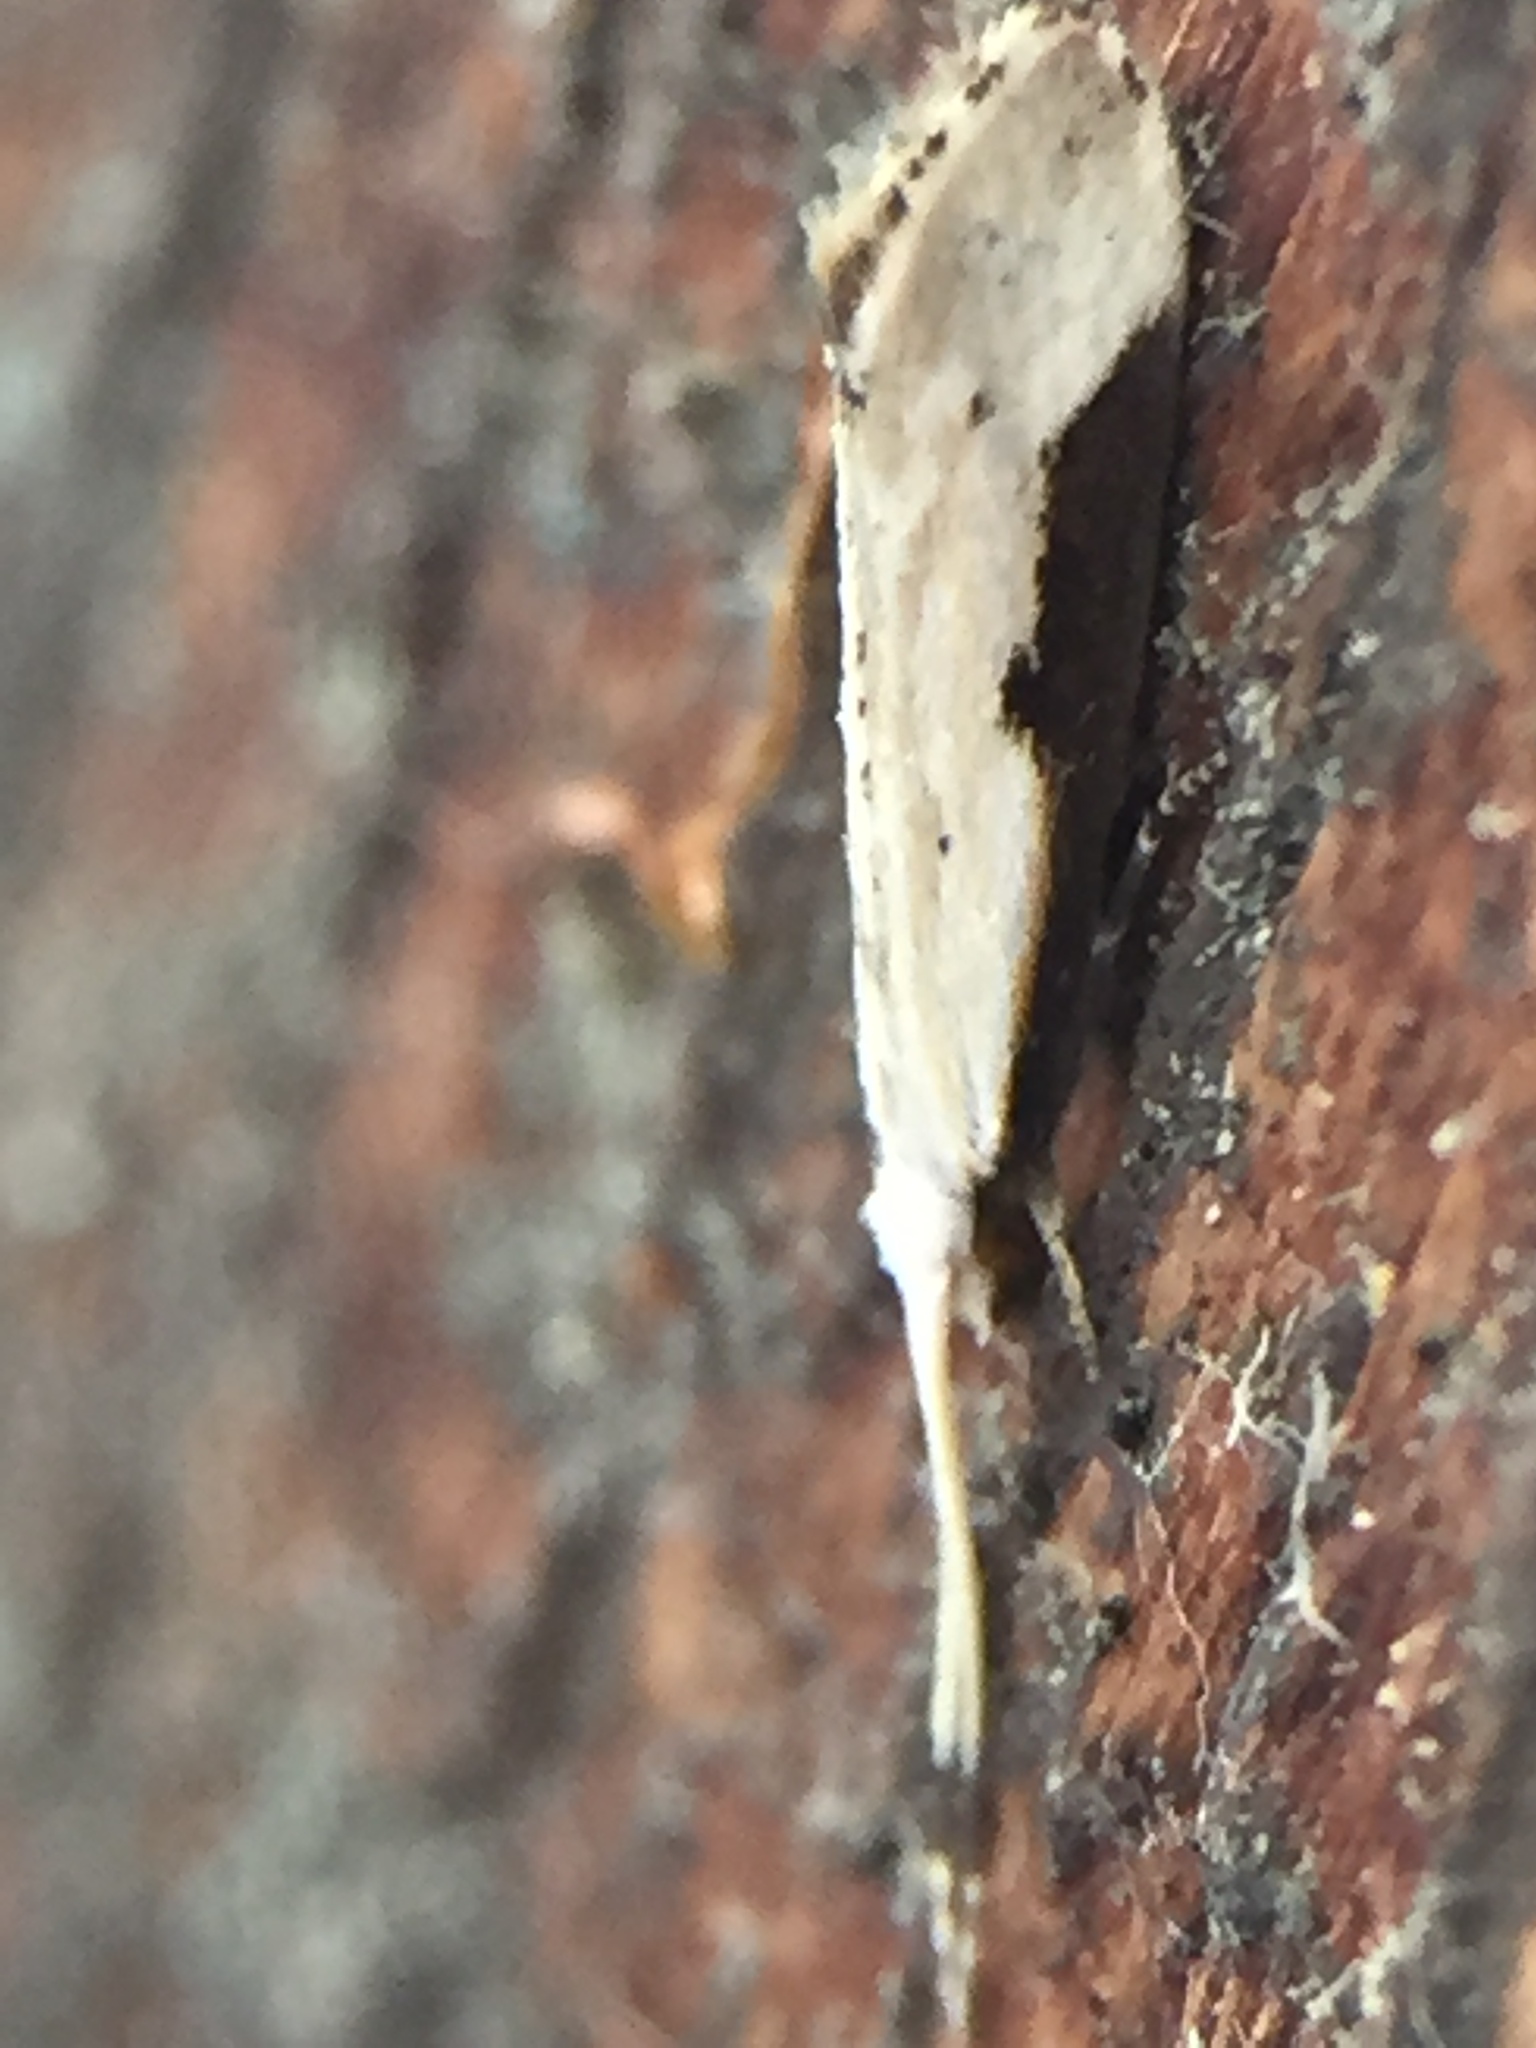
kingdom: Animalia
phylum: Arthropoda
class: Insecta
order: Lepidoptera
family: Tineidae
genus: Sagephora
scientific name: Sagephora phortegella
